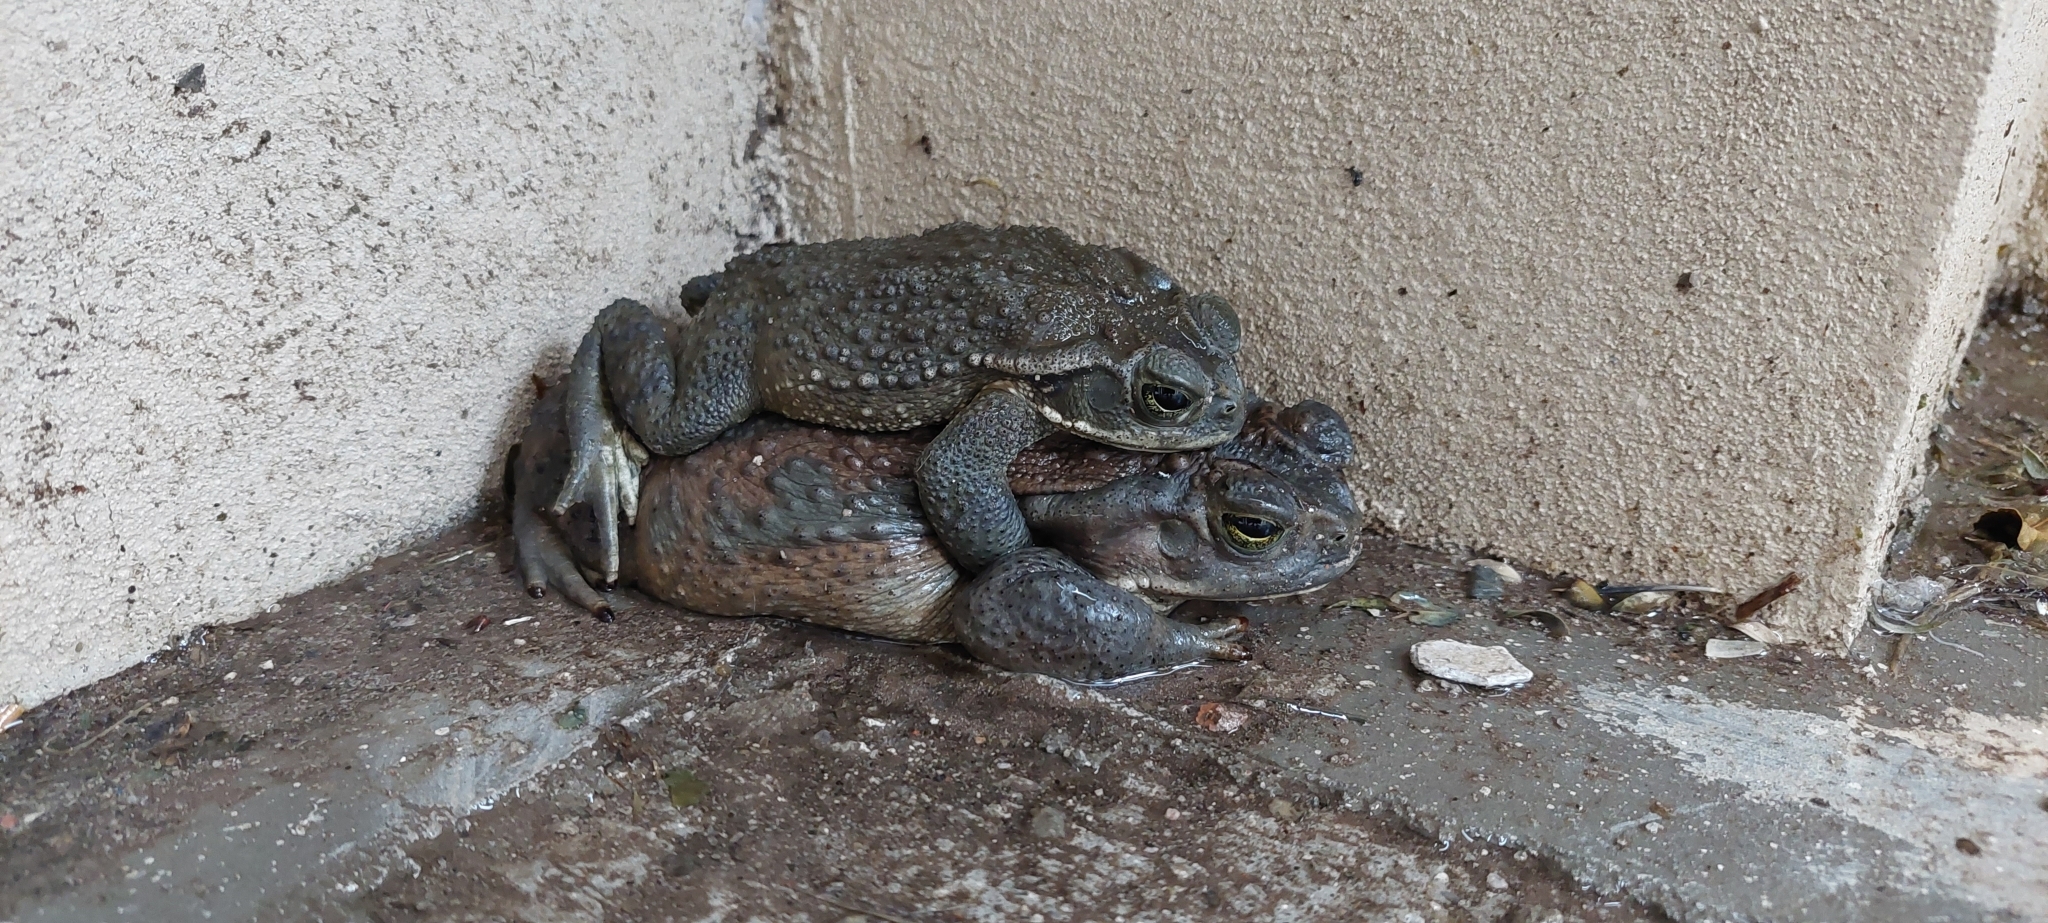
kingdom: Animalia
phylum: Chordata
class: Amphibia
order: Anura
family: Bufonidae
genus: Rhinella
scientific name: Rhinella arenarum
